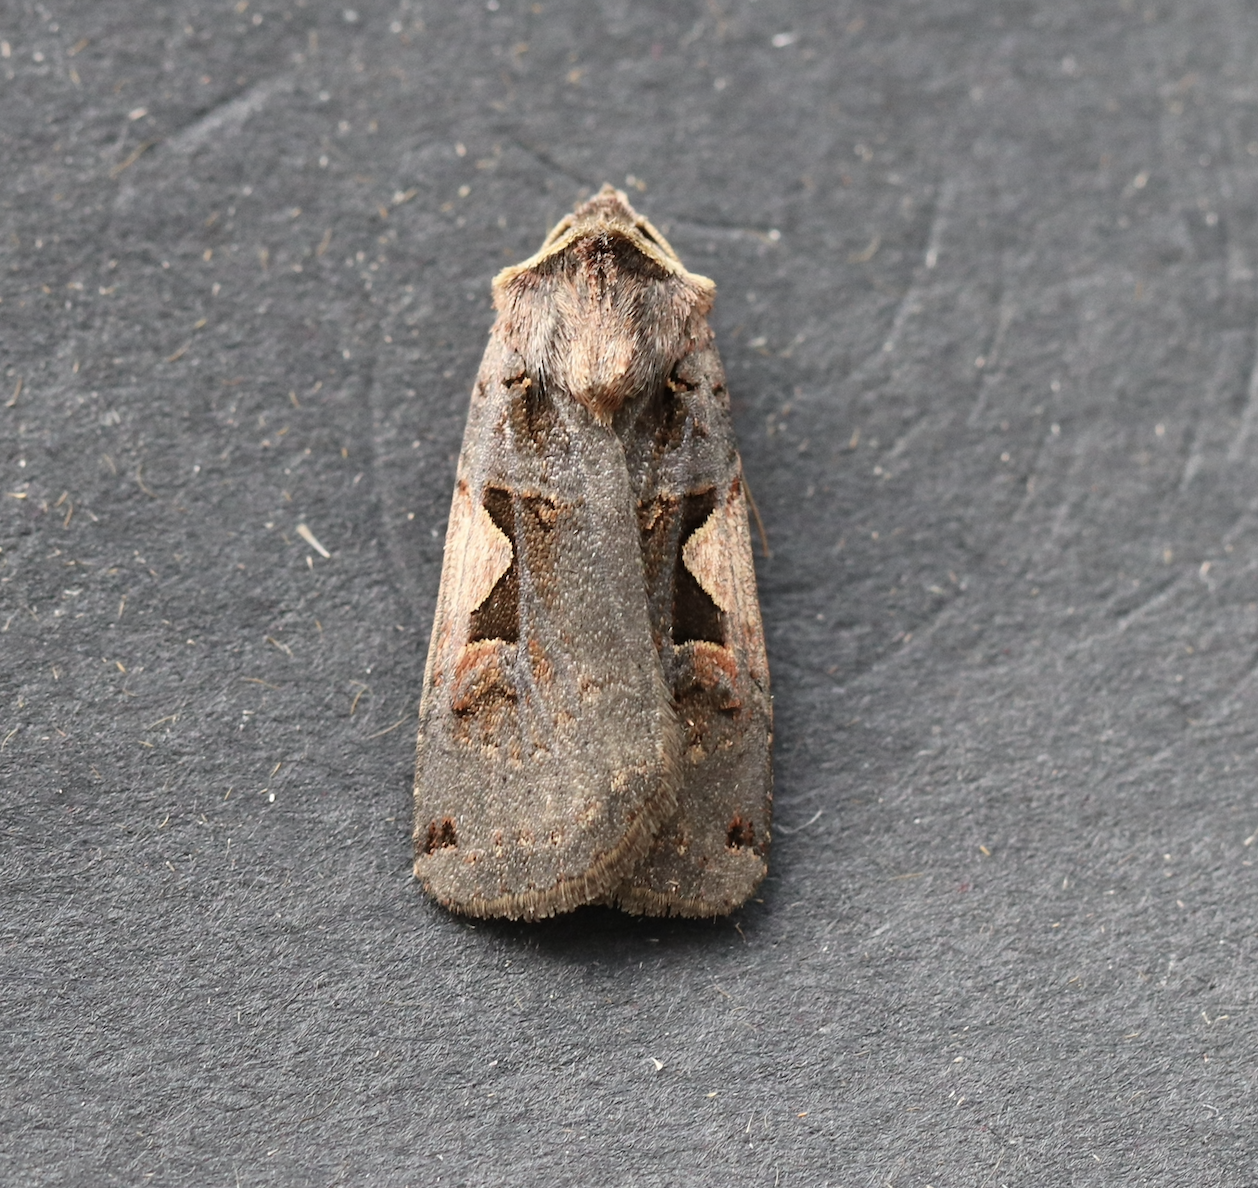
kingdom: Animalia
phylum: Arthropoda
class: Insecta
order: Lepidoptera
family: Noctuidae
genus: Xestia
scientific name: Xestia c-nigrum
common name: Setaceous hebrew character
